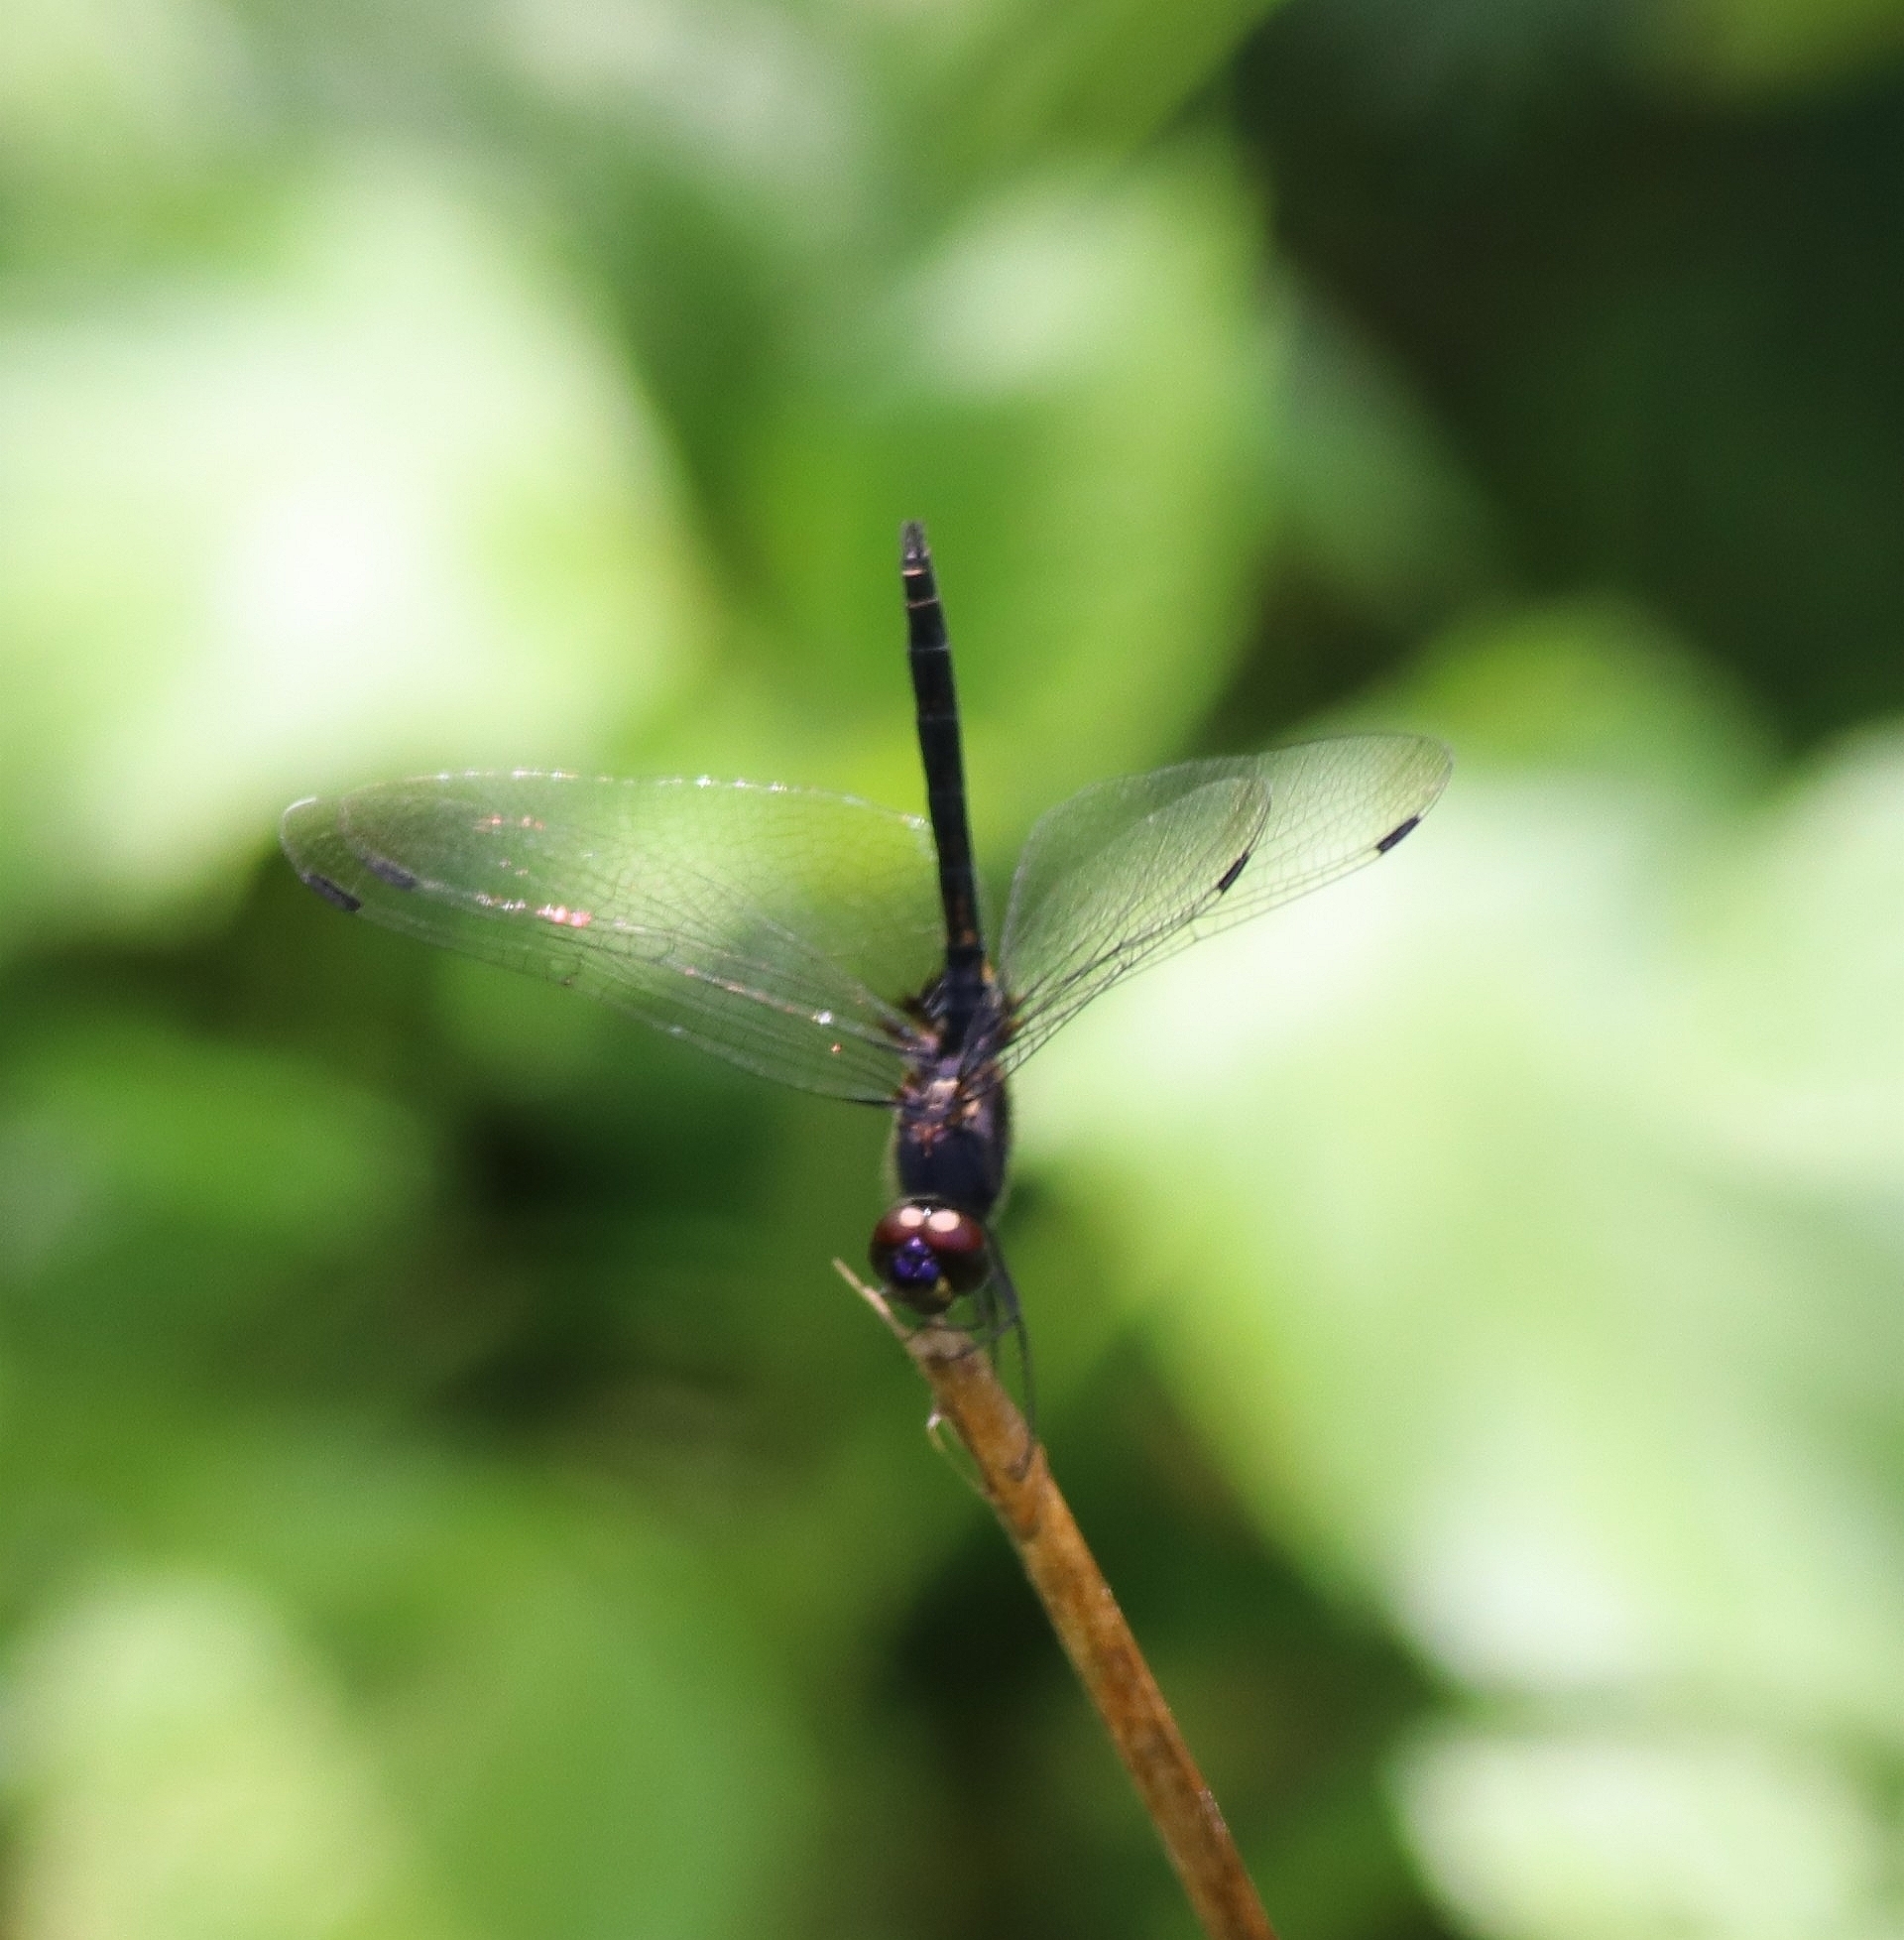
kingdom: Animalia
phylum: Arthropoda
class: Insecta
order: Odonata
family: Libellulidae
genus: Trithemis
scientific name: Trithemis festiva
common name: Indigo dropwing
